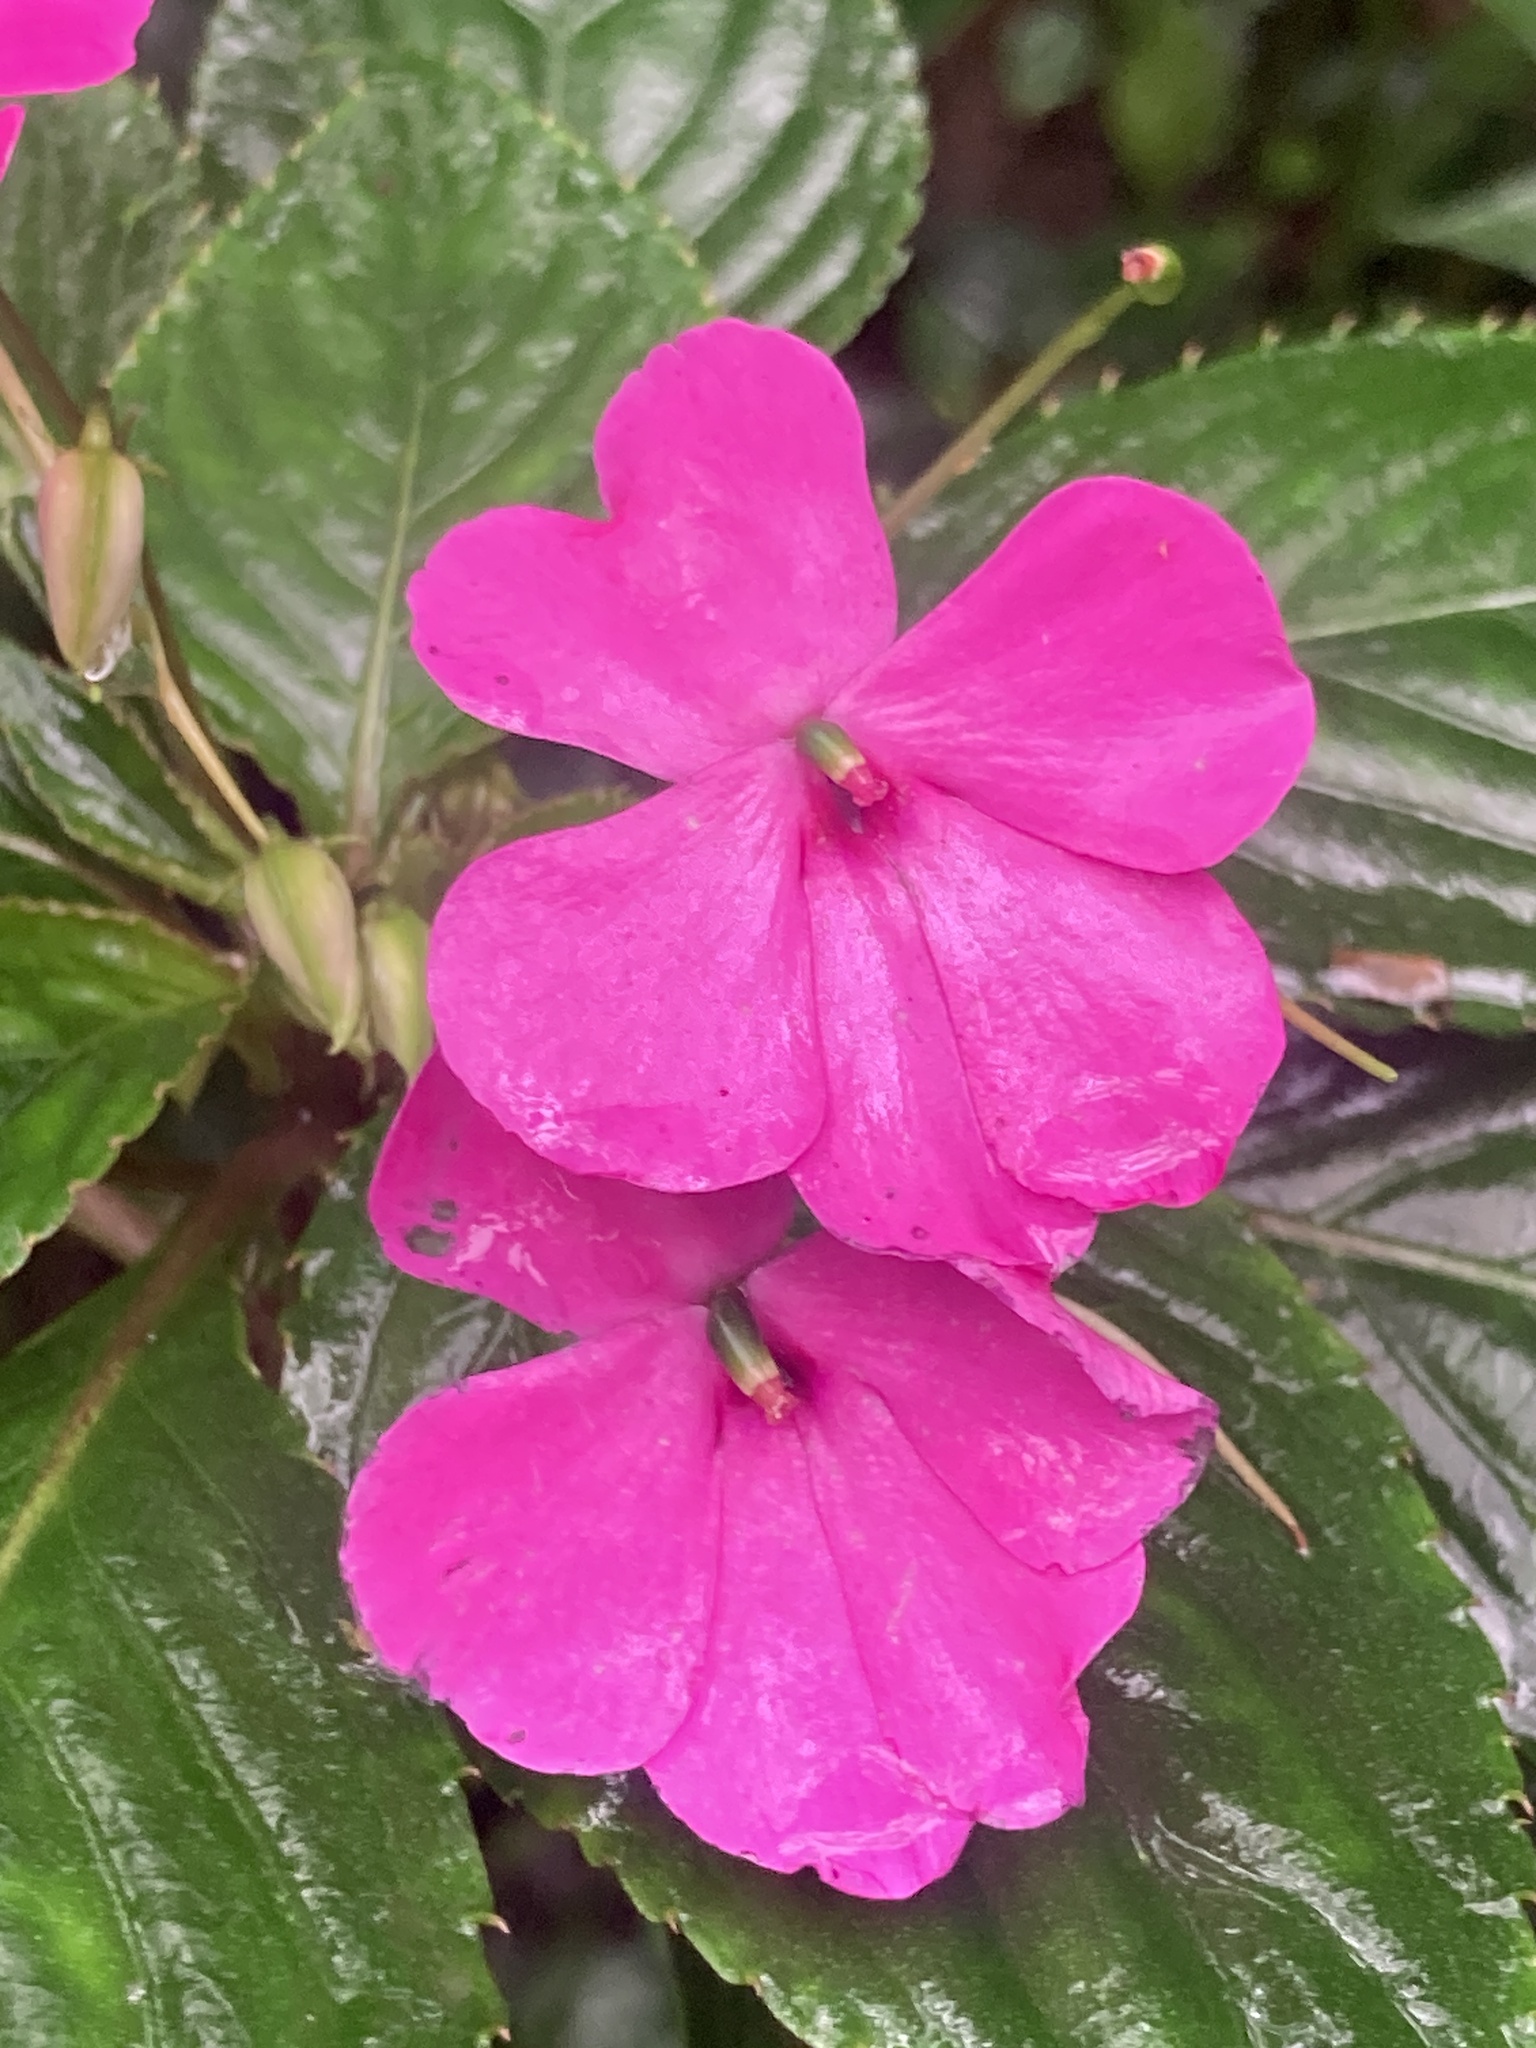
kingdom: Plantae
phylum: Tracheophyta
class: Magnoliopsida
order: Ericales
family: Balsaminaceae
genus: Impatiens
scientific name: Impatiens walleriana
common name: Buzzy lizzy
